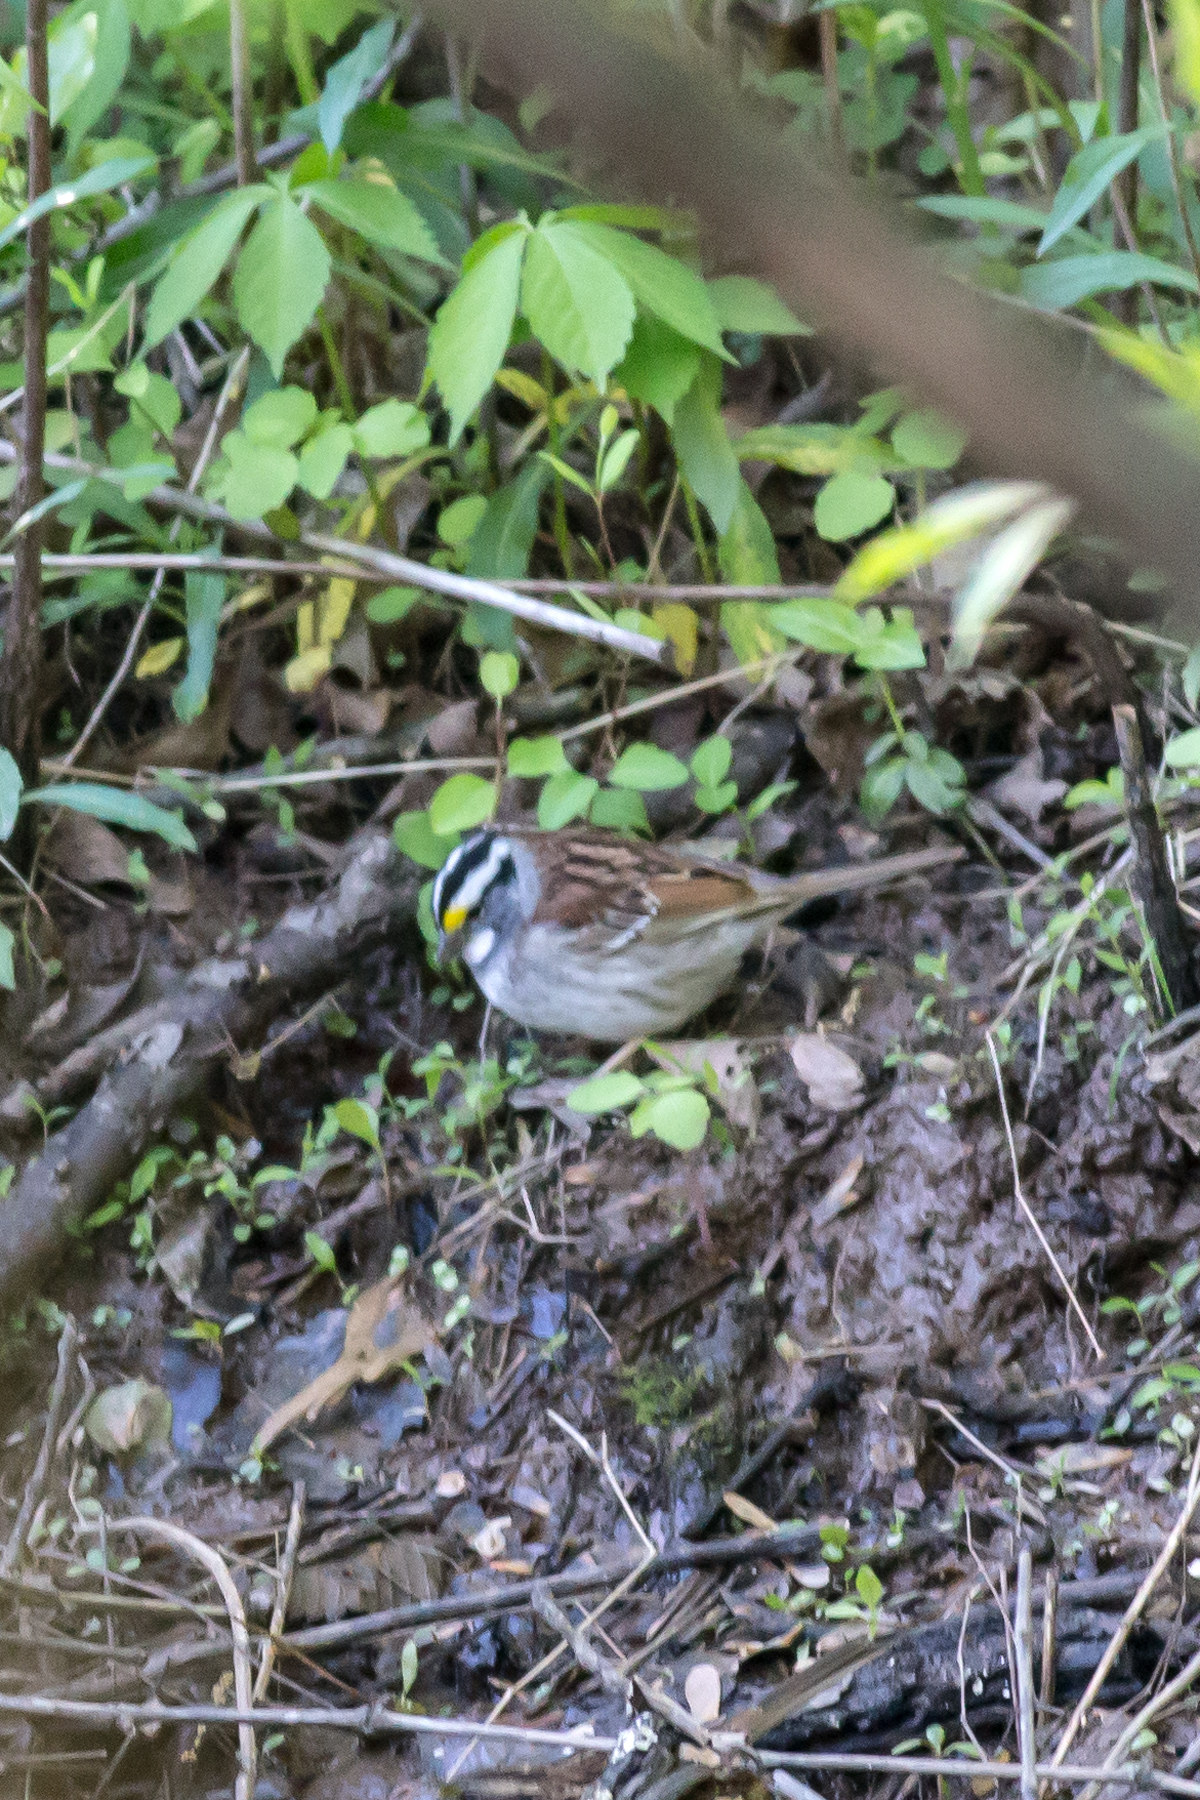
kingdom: Animalia
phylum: Chordata
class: Aves
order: Passeriformes
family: Passerellidae
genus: Zonotrichia
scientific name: Zonotrichia albicollis
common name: White-throated sparrow
